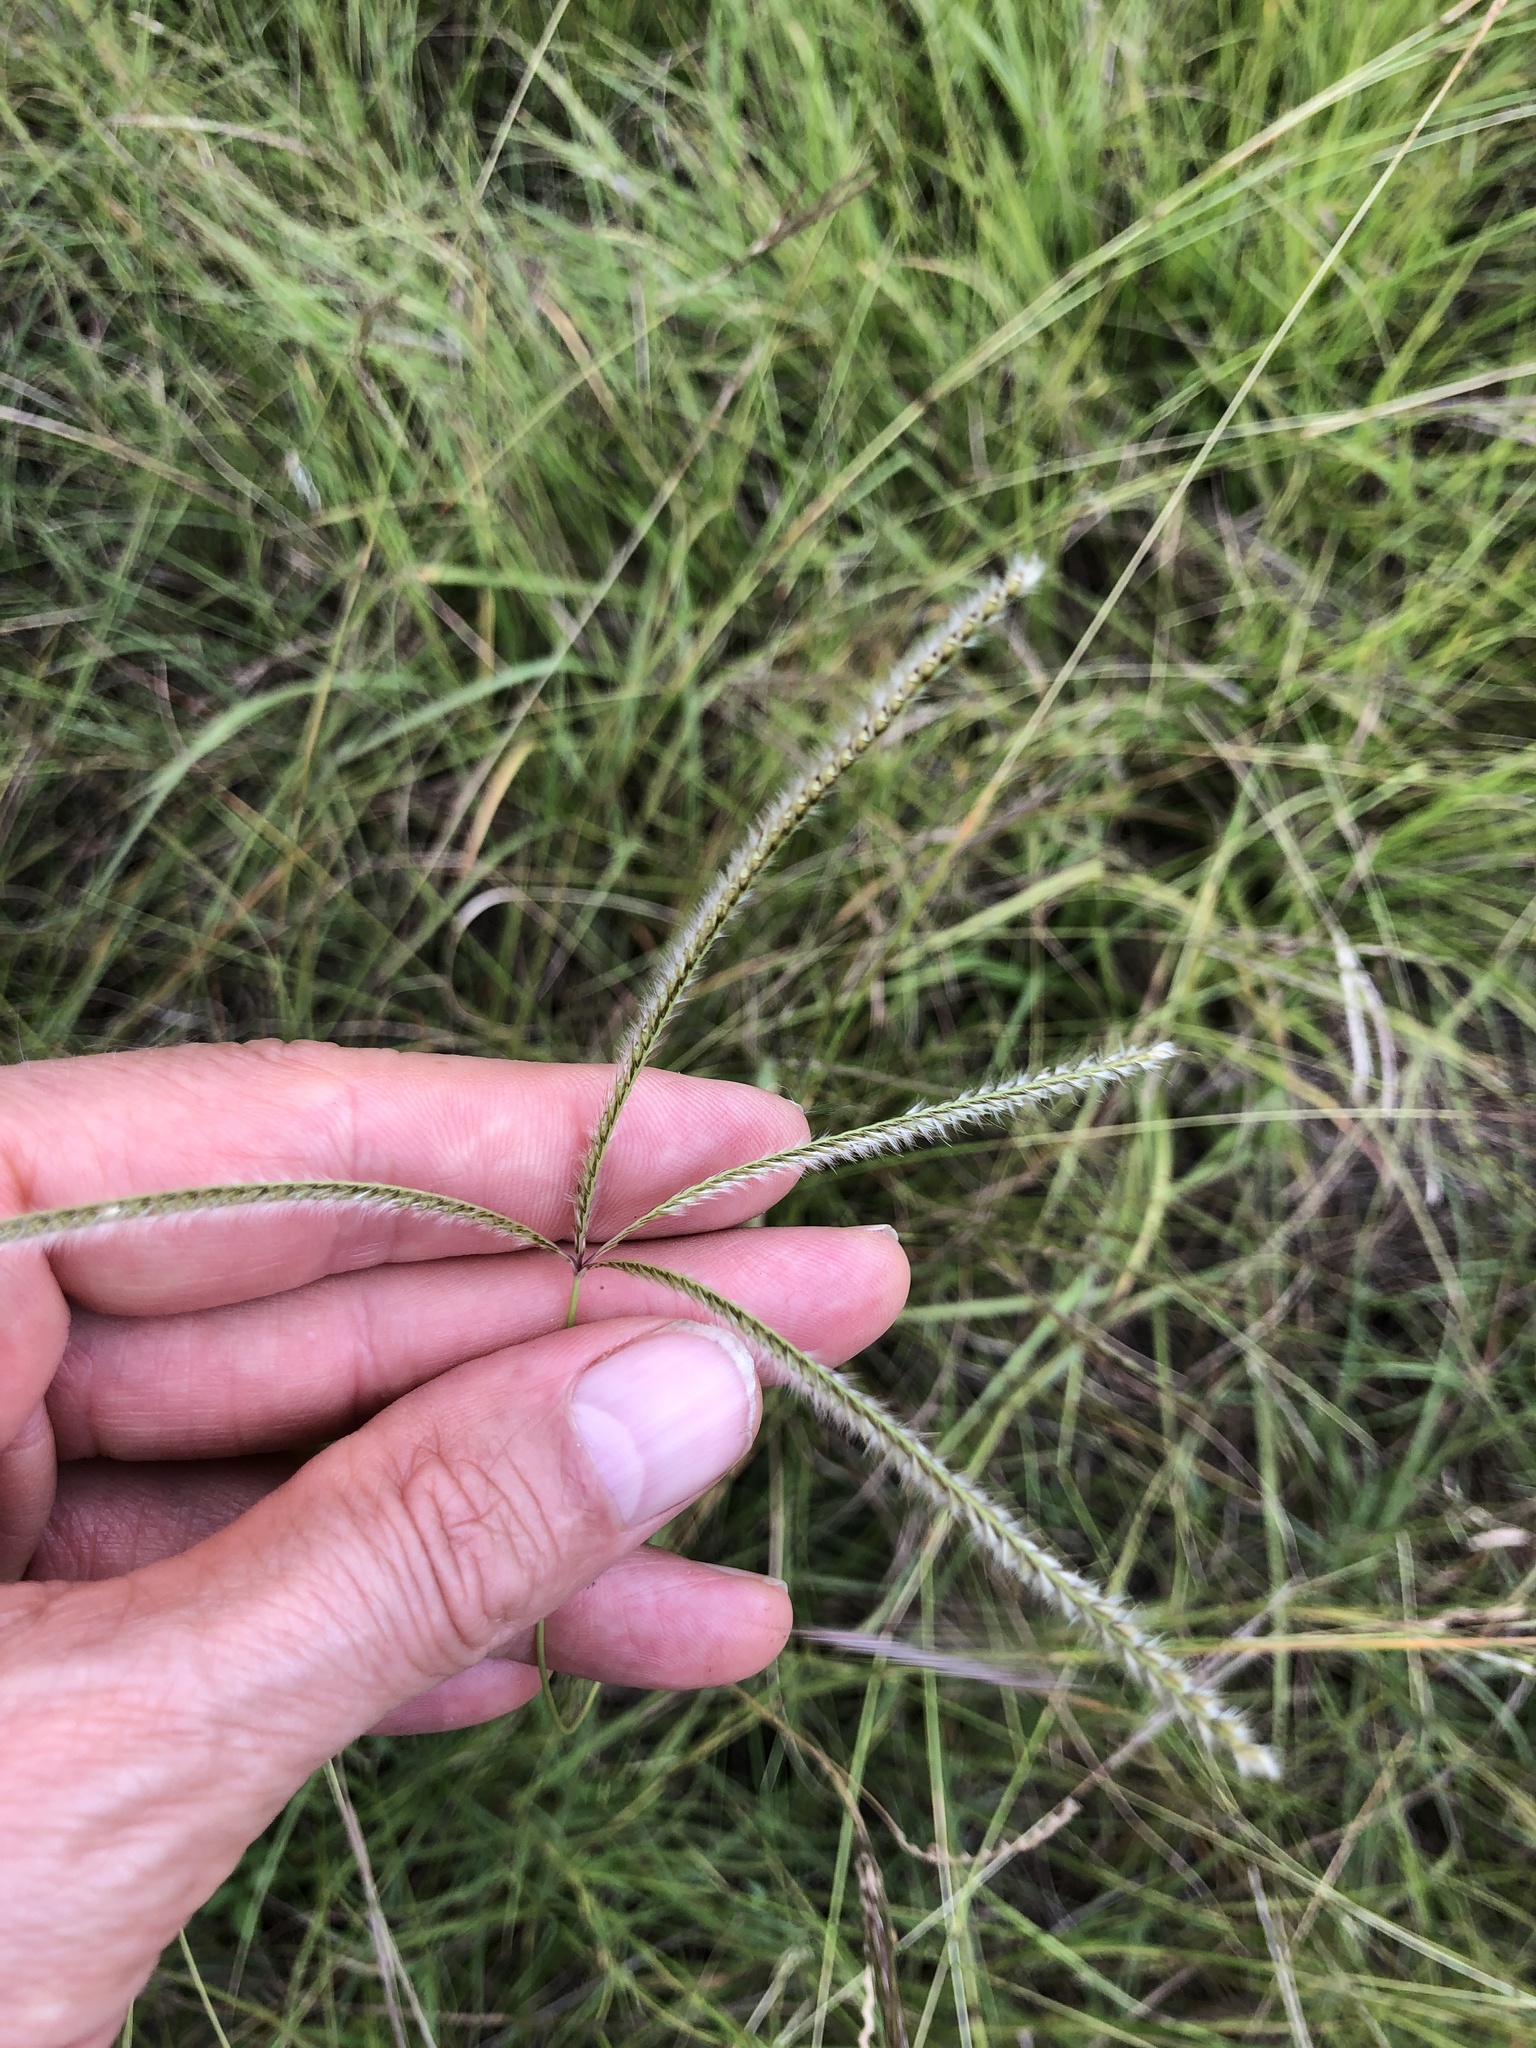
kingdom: Plantae
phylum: Tracheophyta
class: Liliopsida
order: Poales
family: Poaceae
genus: Stapfochloa
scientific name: Stapfochloa canterae
